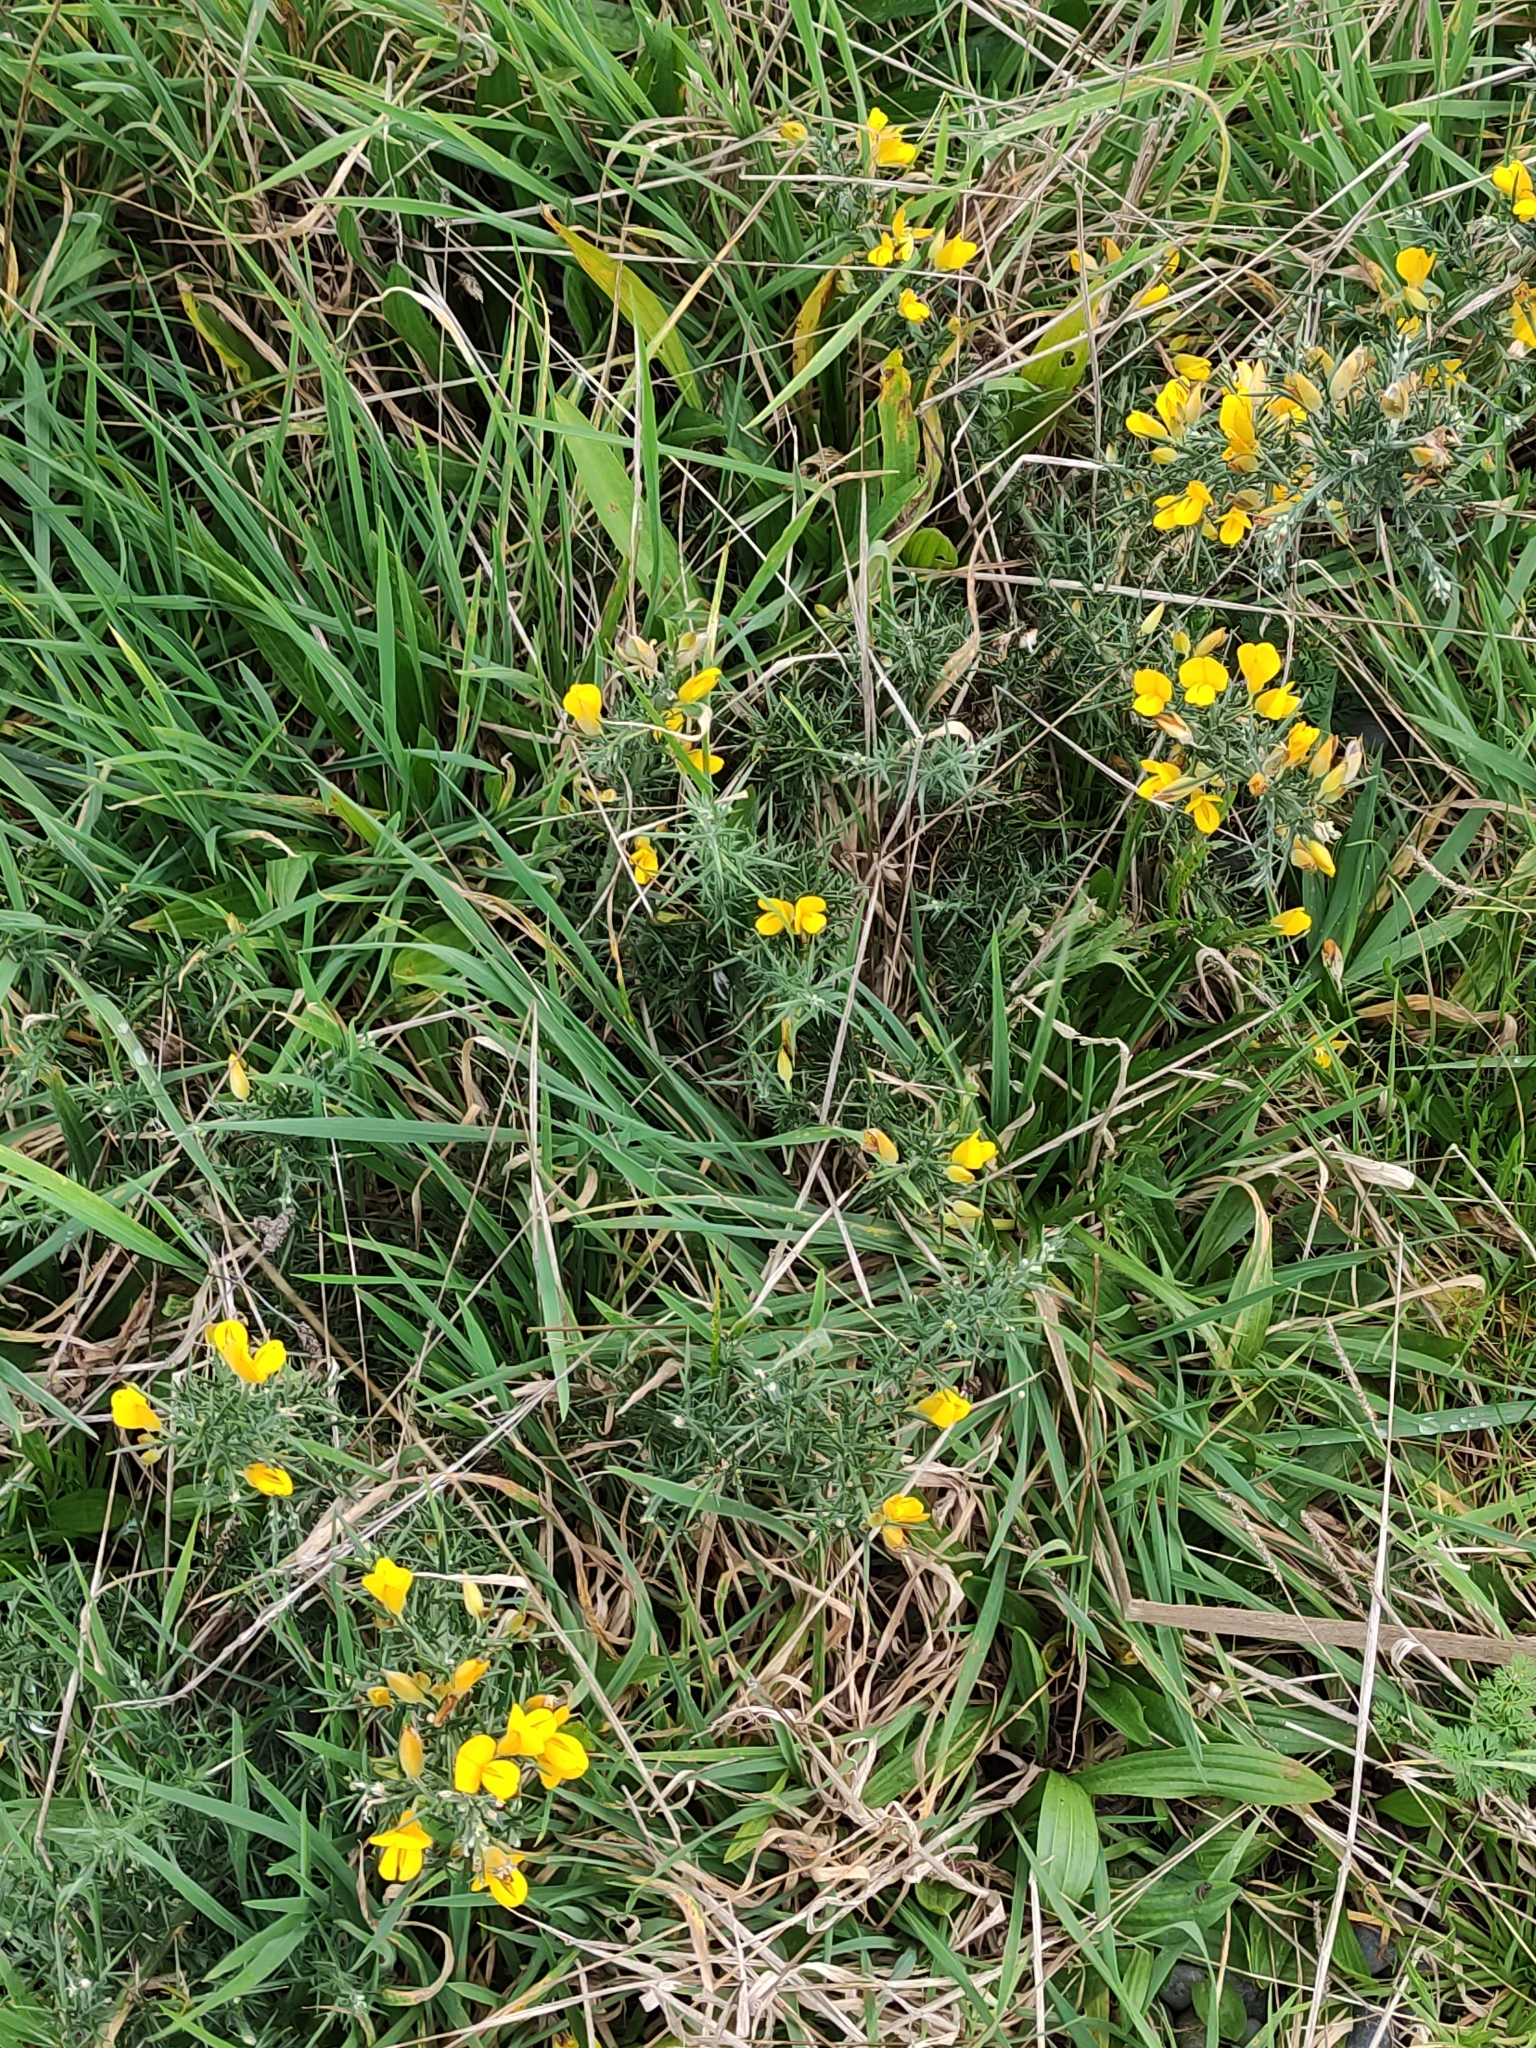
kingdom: Plantae
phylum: Tracheophyta
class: Magnoliopsida
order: Fabales
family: Fabaceae
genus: Ulex
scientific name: Ulex europaeus
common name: Common gorse
